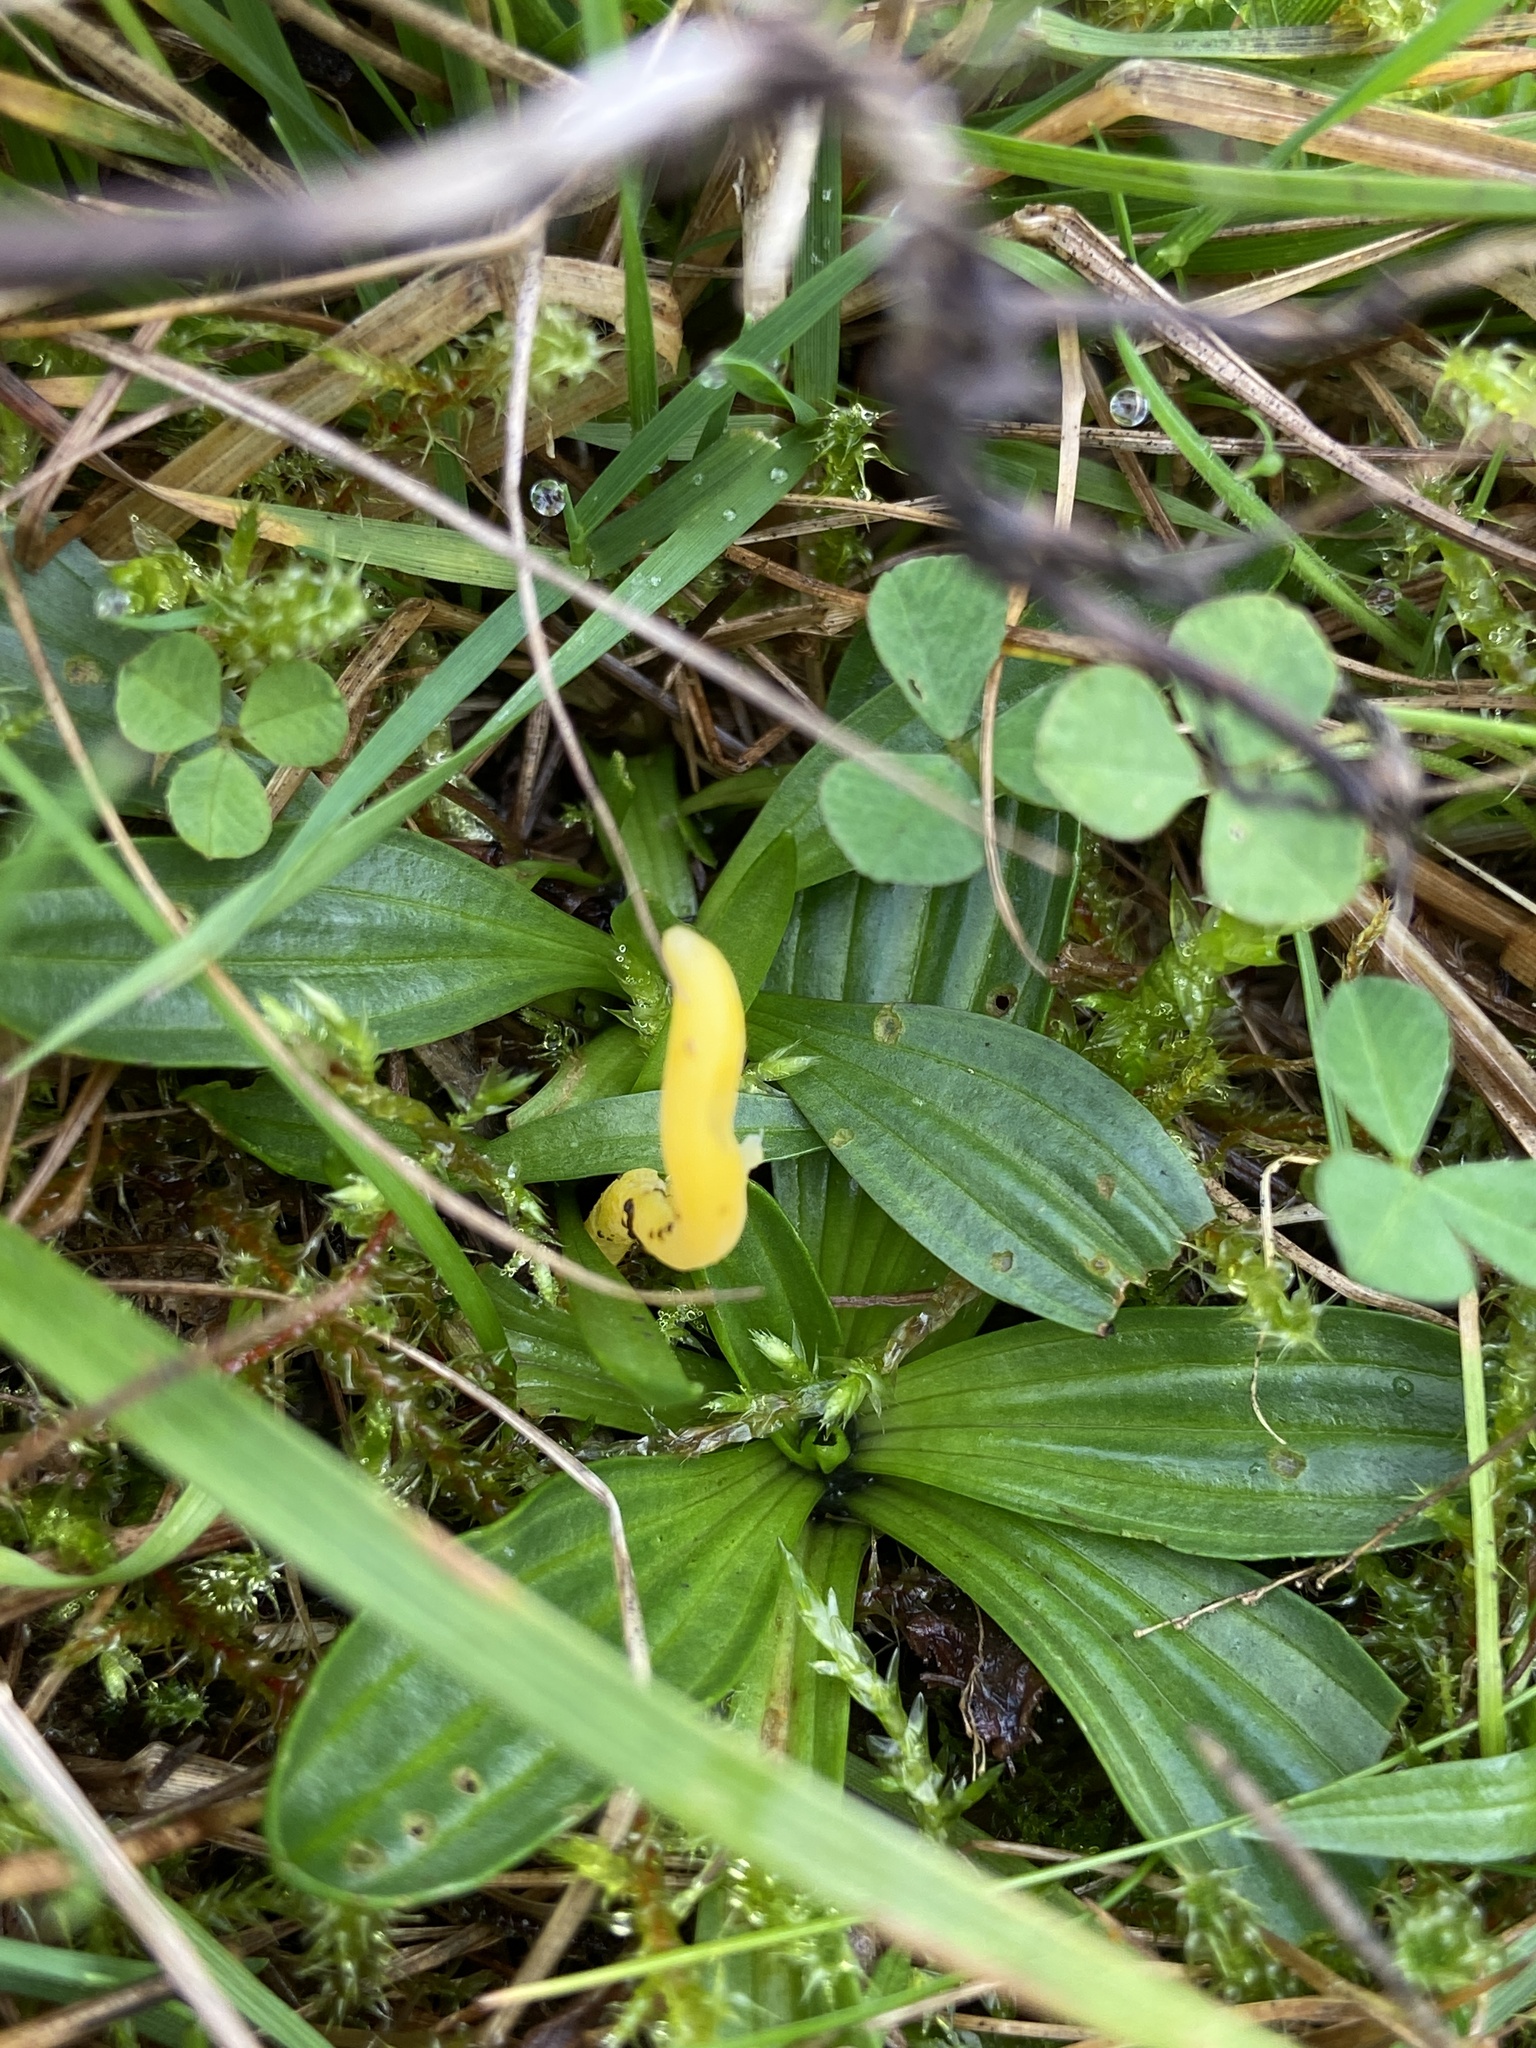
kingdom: Fungi
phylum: Basidiomycota
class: Agaricomycetes
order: Agaricales
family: Clavariaceae
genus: Clavulinopsis
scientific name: Clavulinopsis helvola
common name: Yellow club
